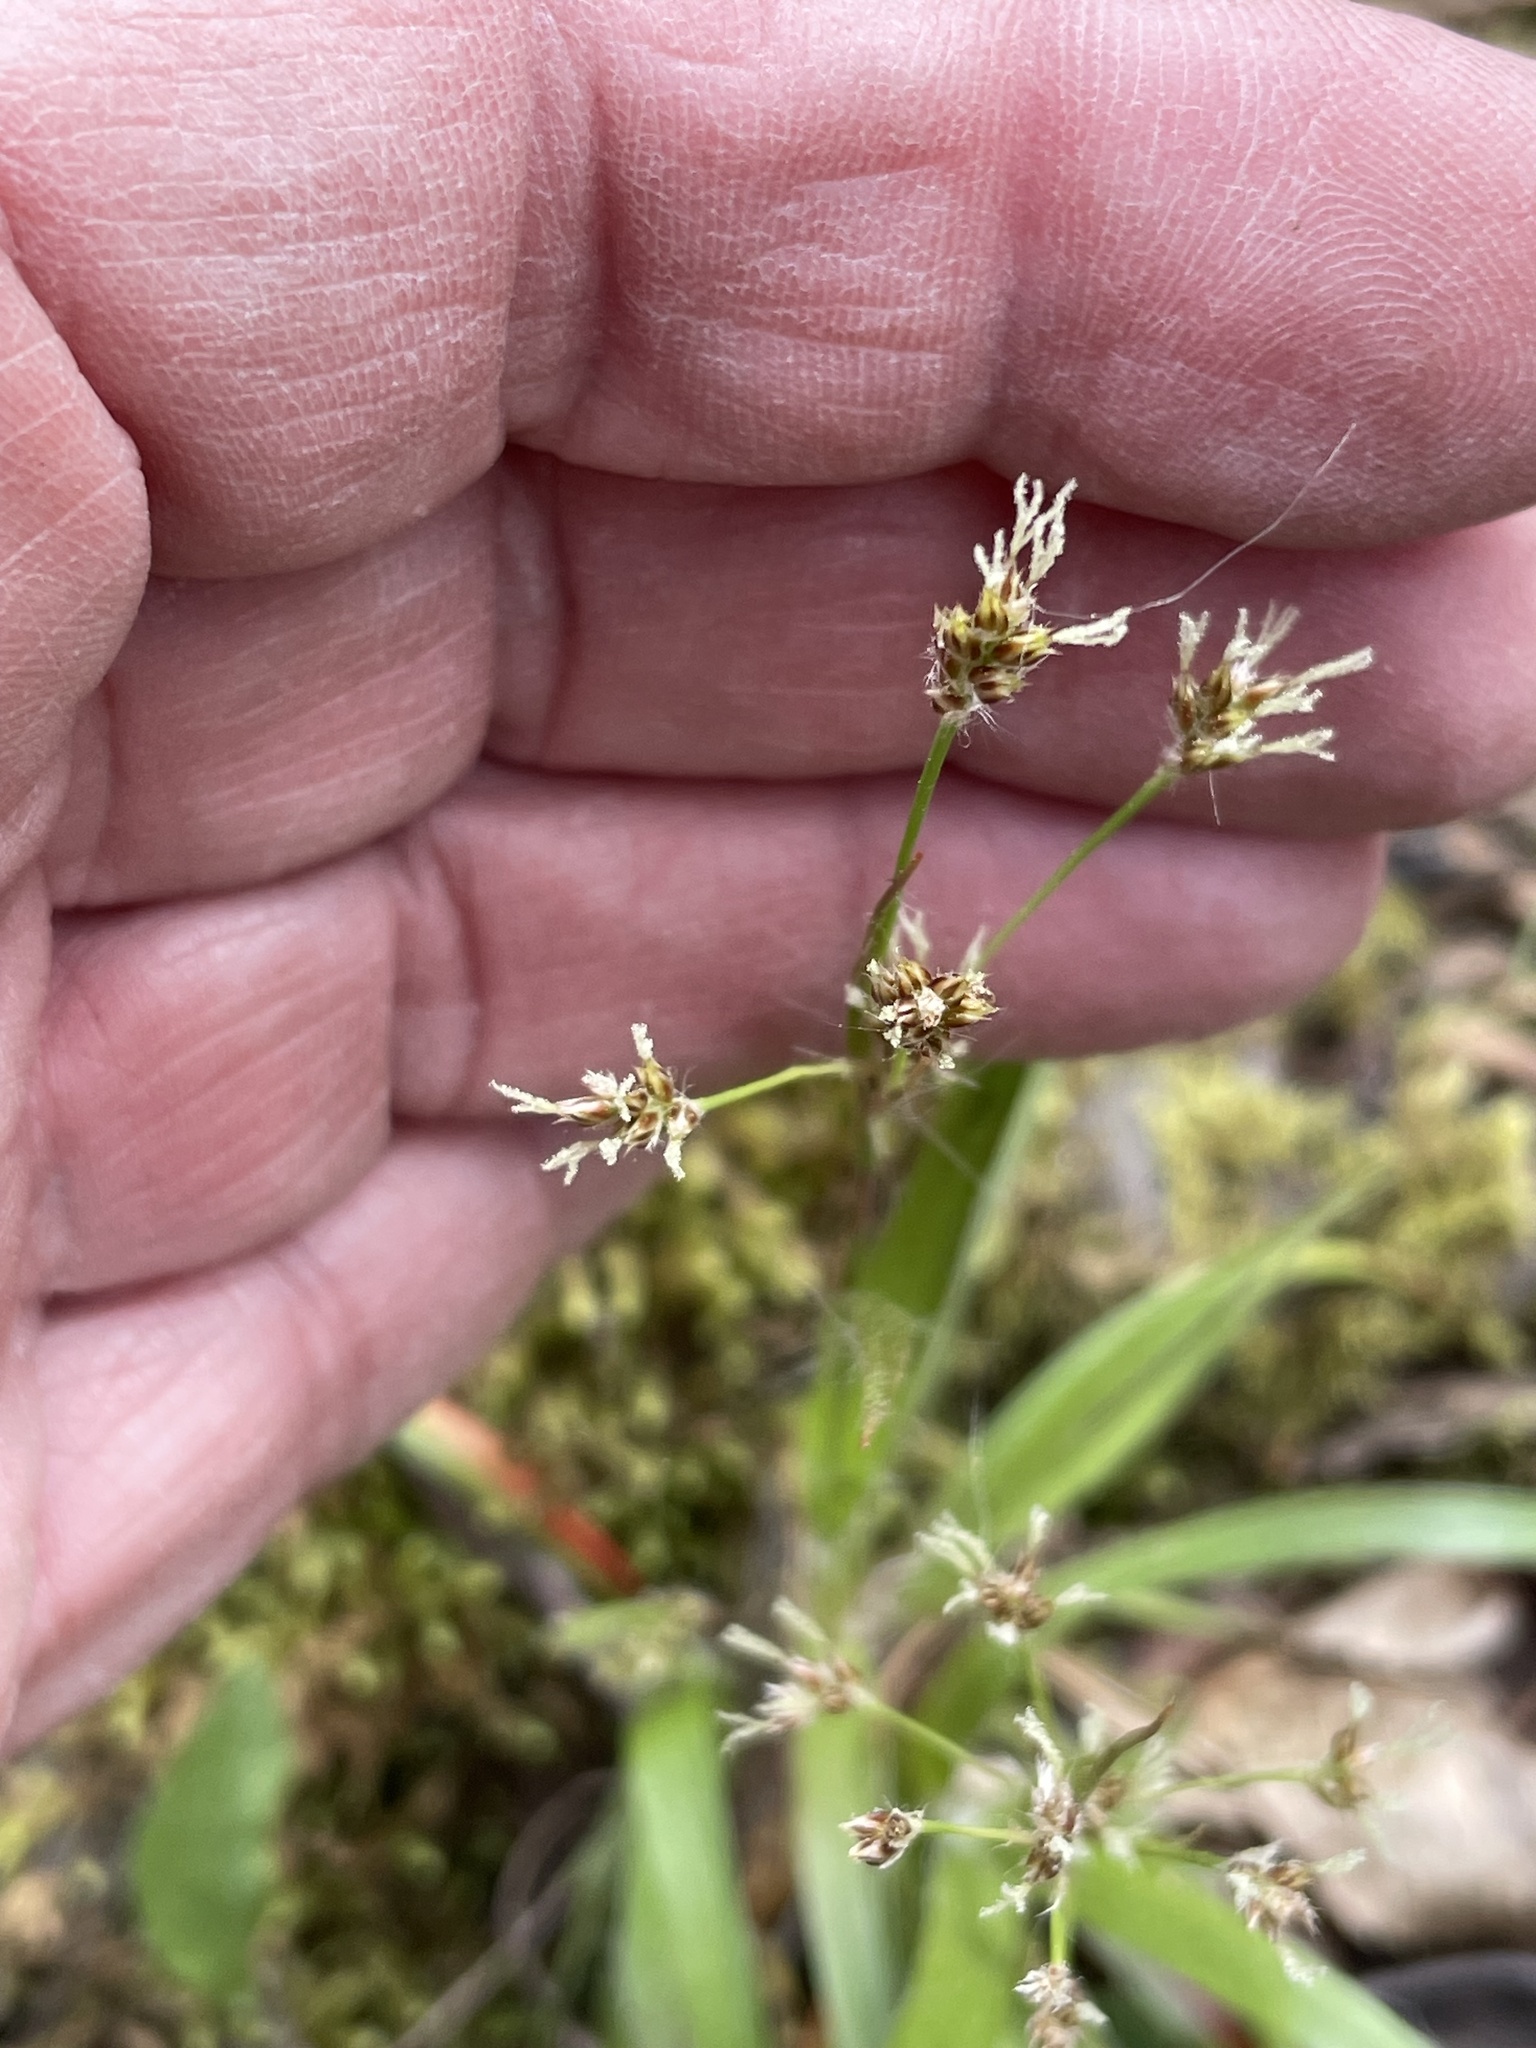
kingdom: Plantae
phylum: Tracheophyta
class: Liliopsida
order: Poales
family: Juncaceae
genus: Luzula
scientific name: Luzula echinata
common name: Hedgehog woodrush
